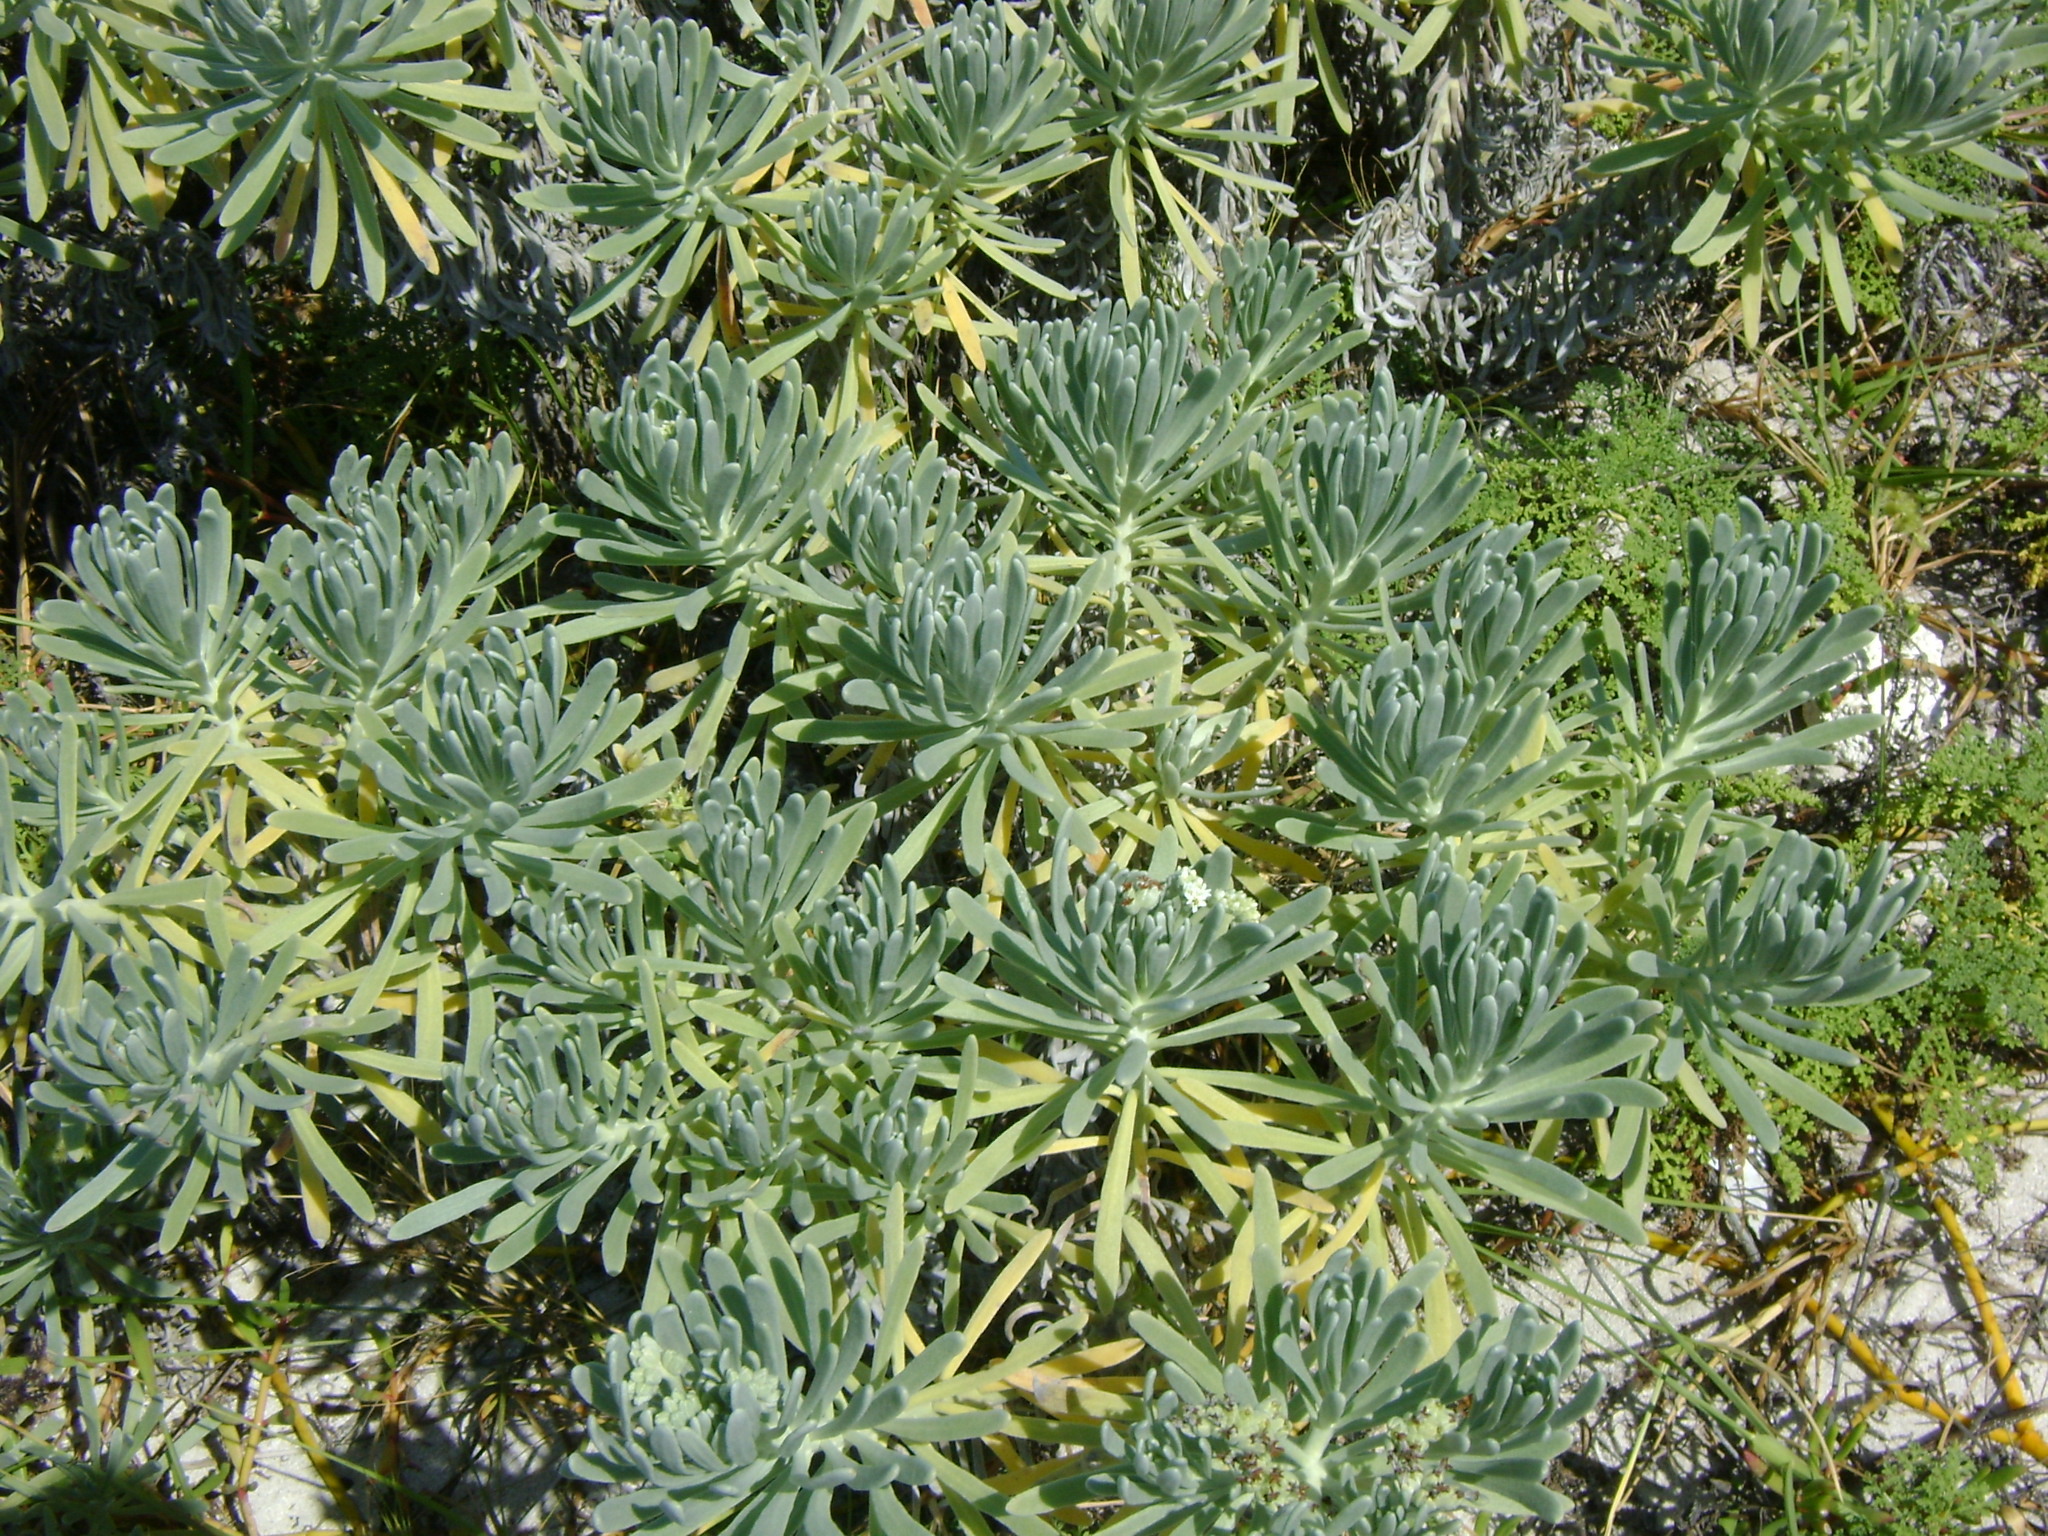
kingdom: Plantae
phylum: Tracheophyta
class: Magnoliopsida
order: Boraginales
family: Heliotropiaceae
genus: Tournefortia
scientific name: Tournefortia gnaphalodes
